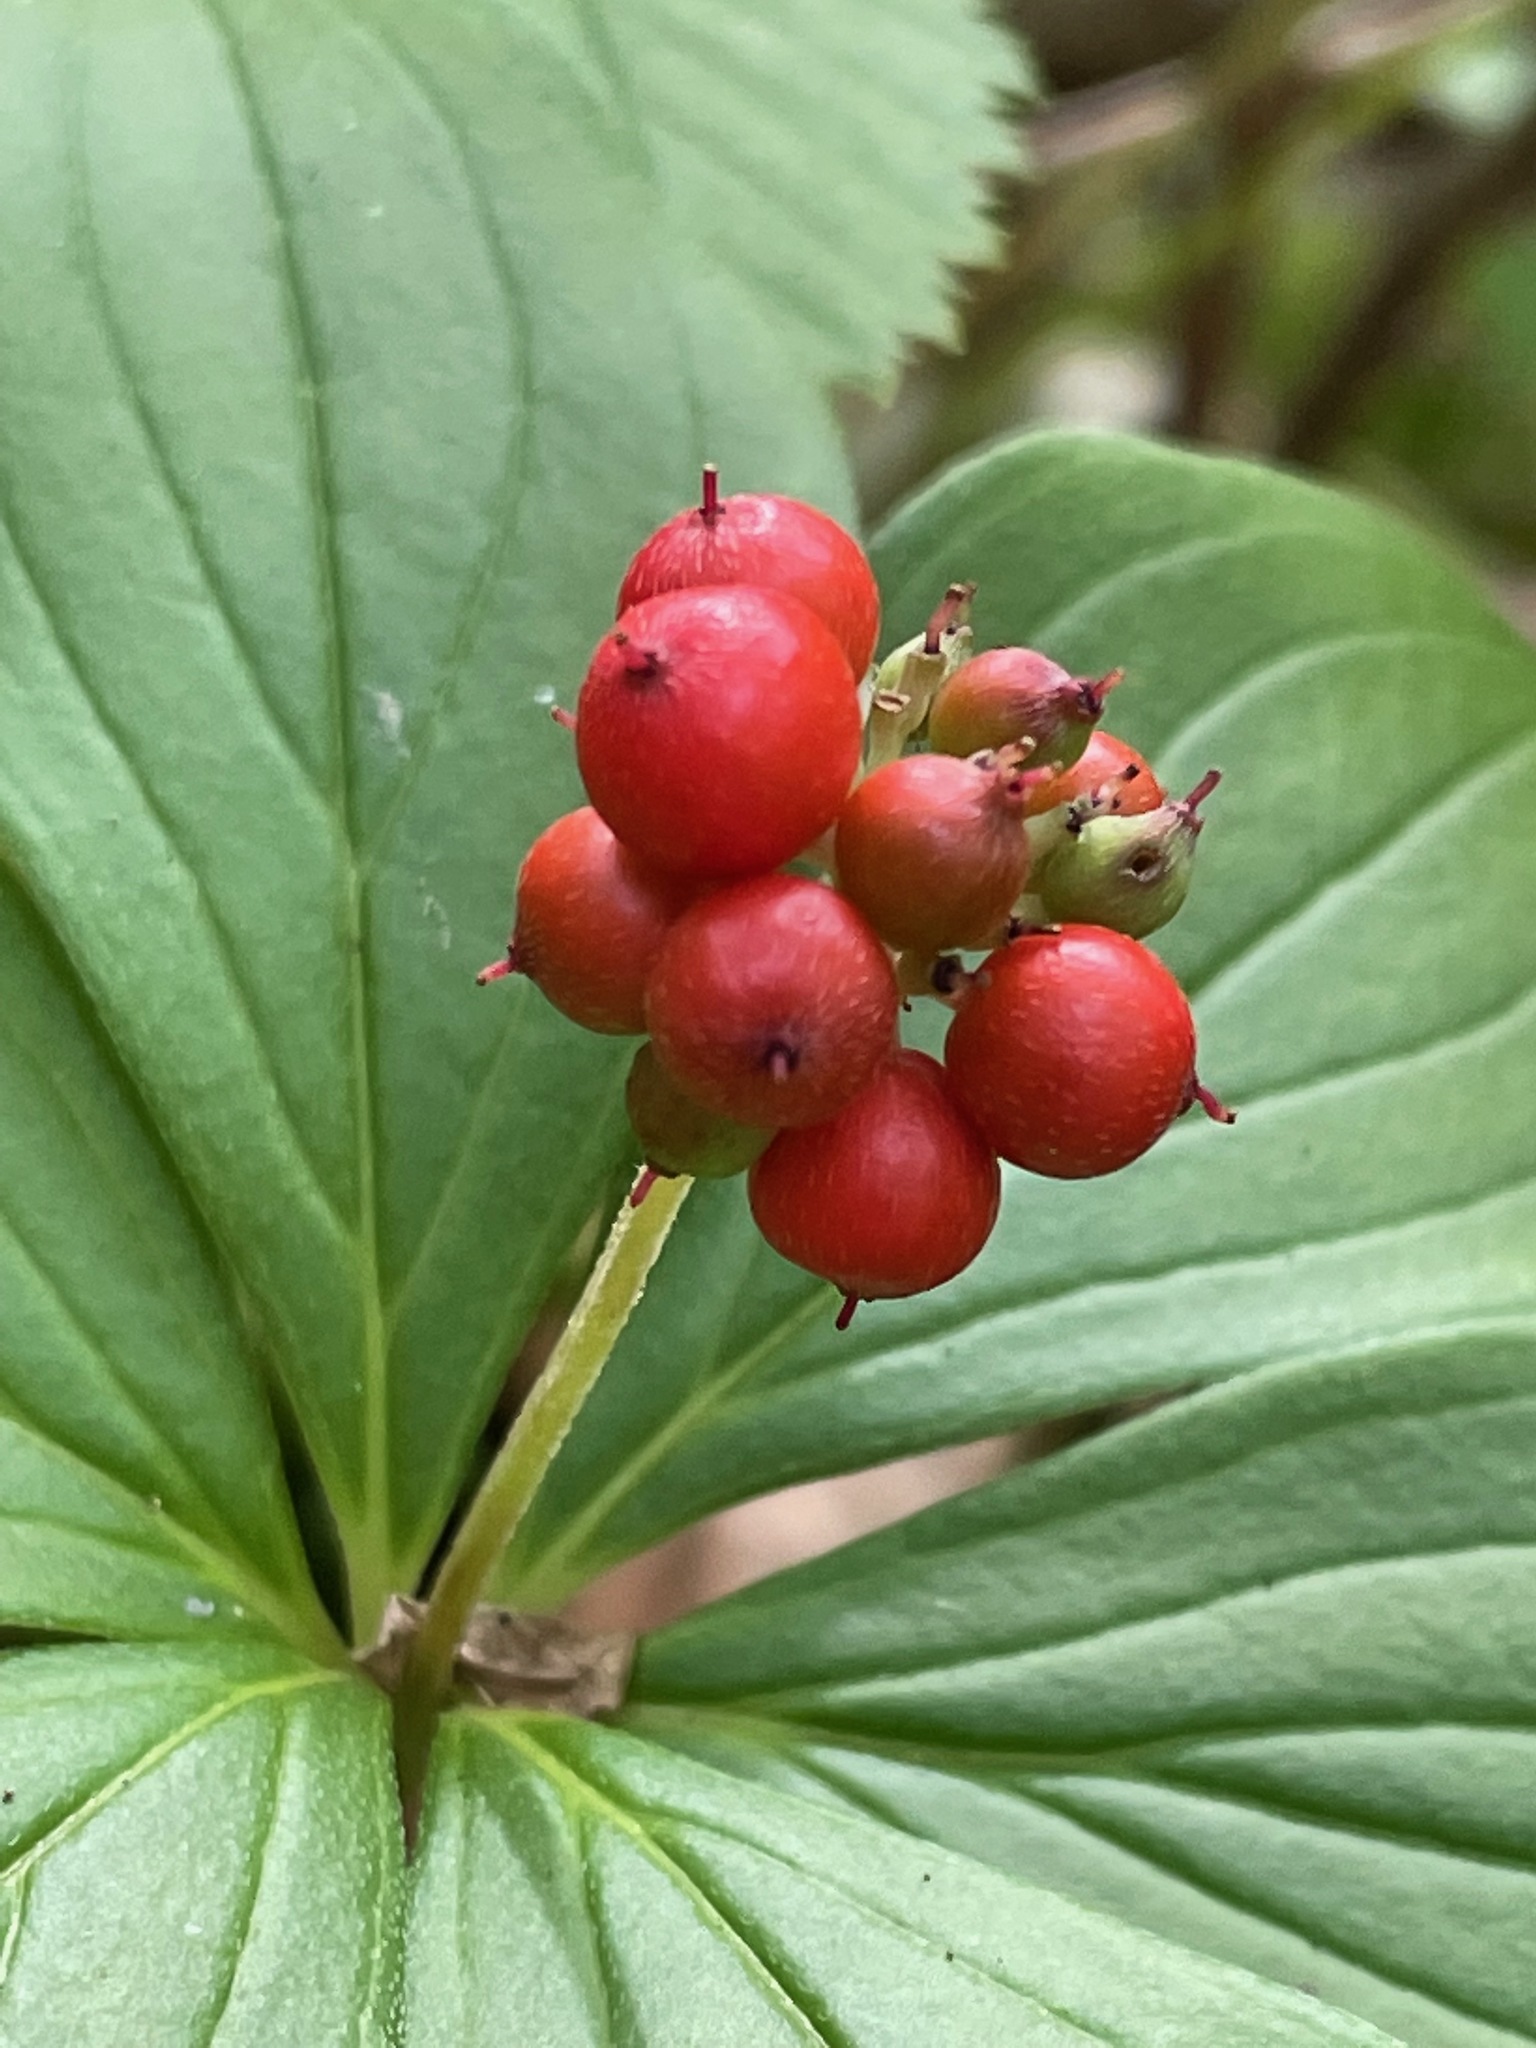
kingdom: Plantae
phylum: Tracheophyta
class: Magnoliopsida
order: Cornales
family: Cornaceae
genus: Cornus
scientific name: Cornus canadensis
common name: Creeping dogwood
